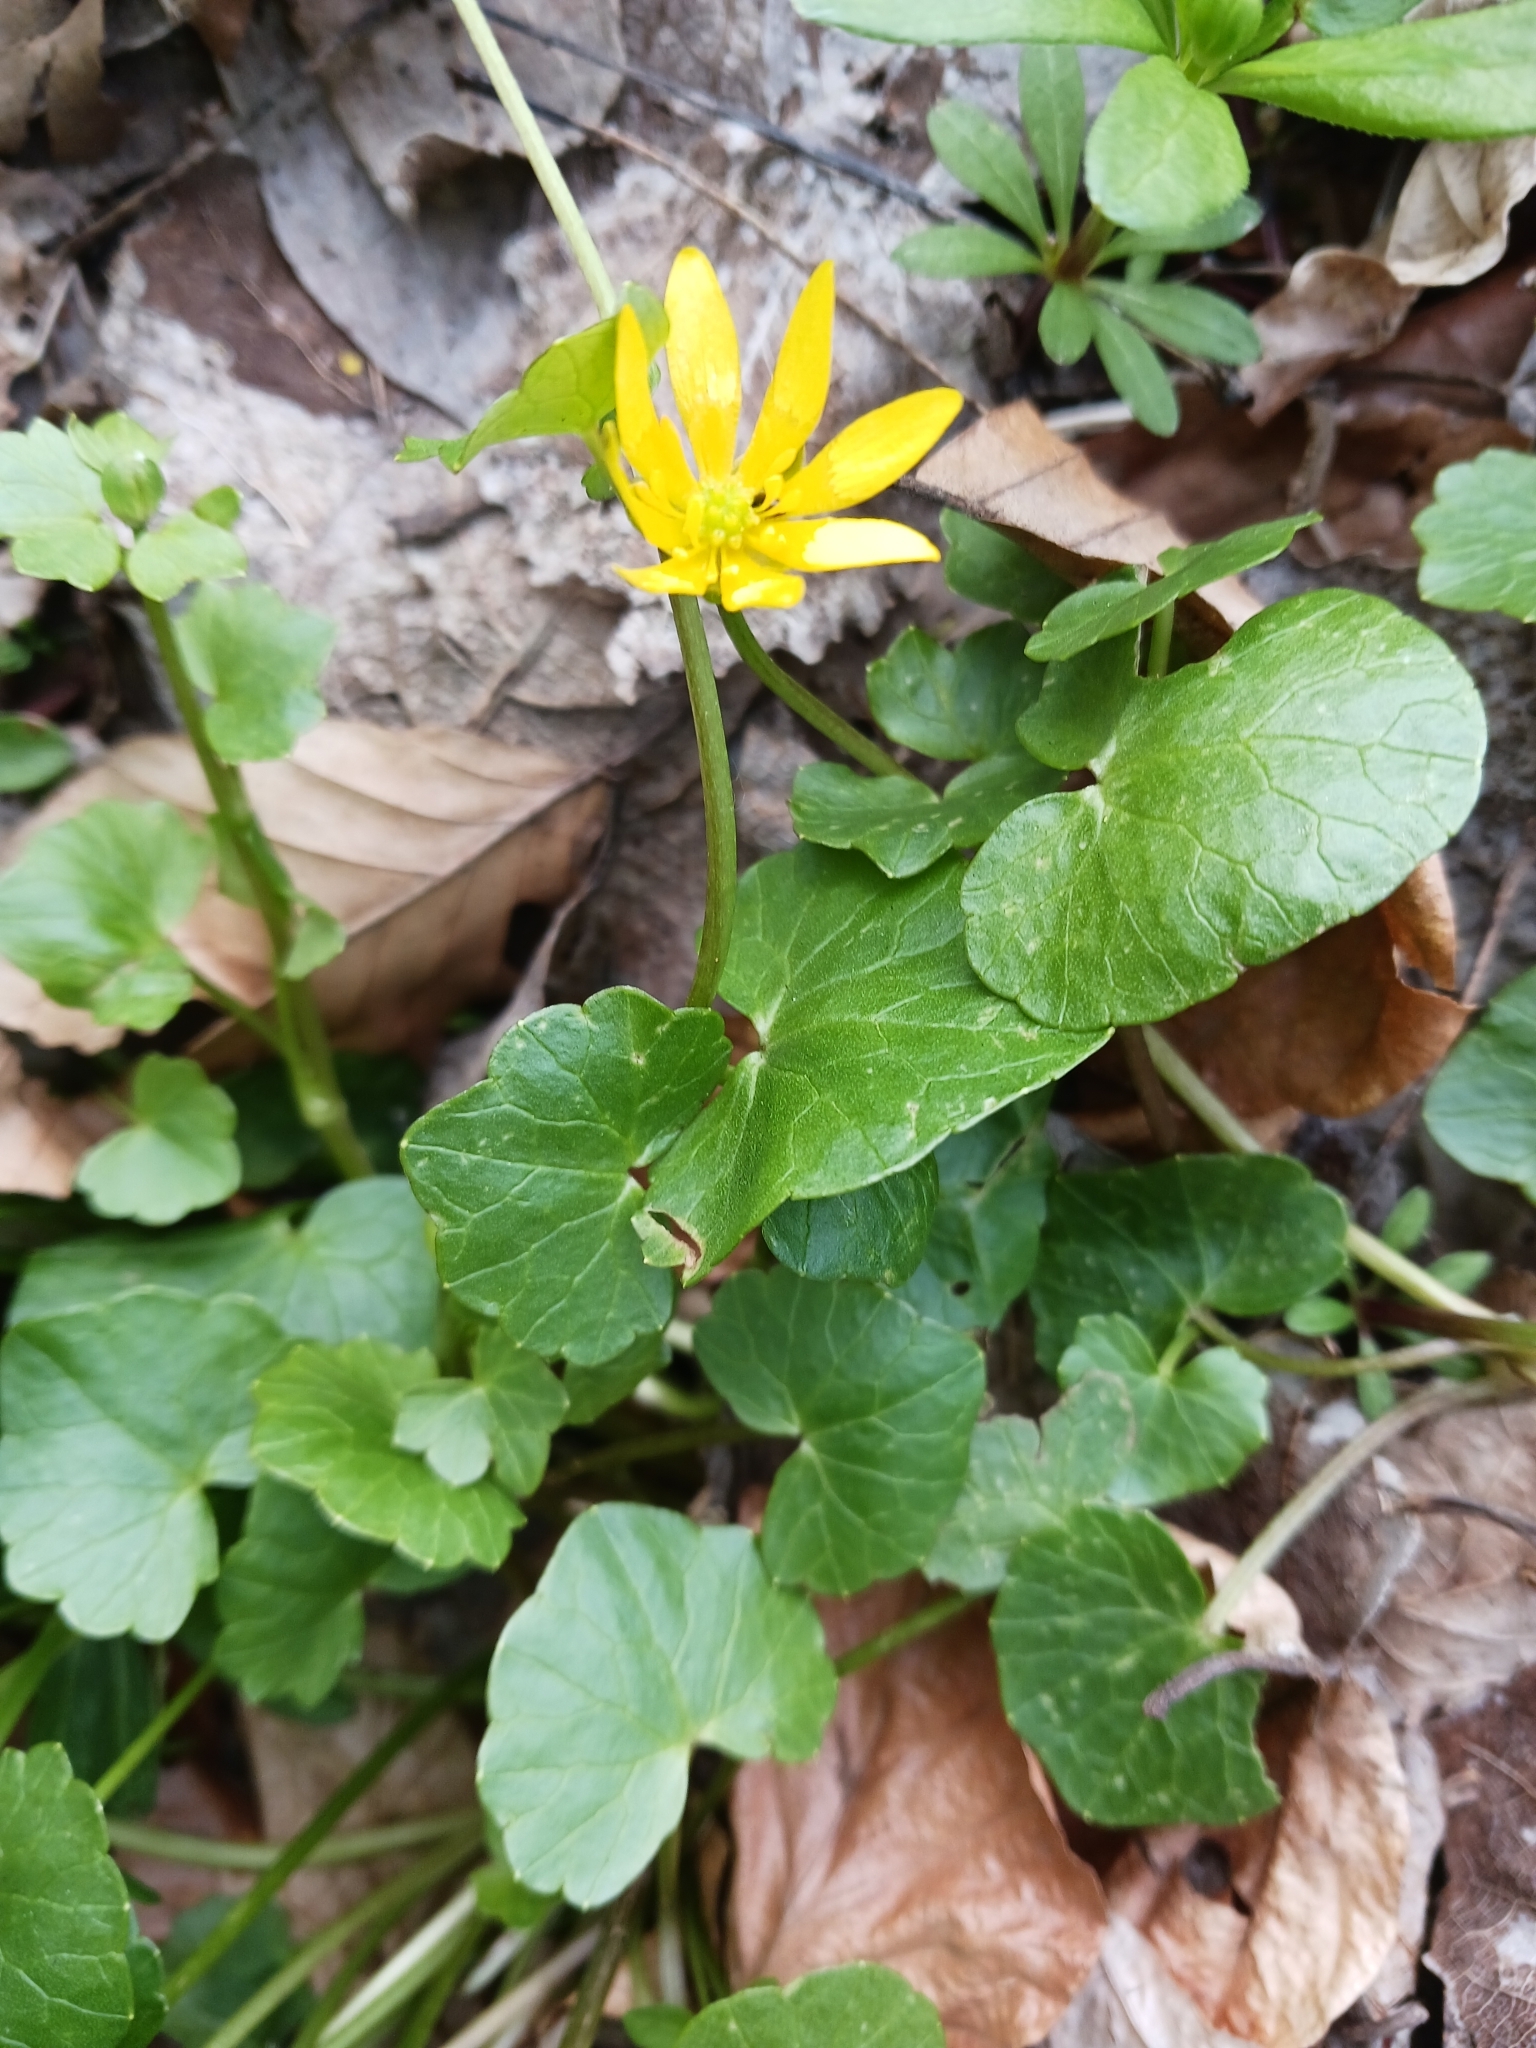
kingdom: Plantae
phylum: Tracheophyta
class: Magnoliopsida
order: Ranunculales
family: Ranunculaceae
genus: Ficaria
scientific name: Ficaria verna
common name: Lesser celandine
